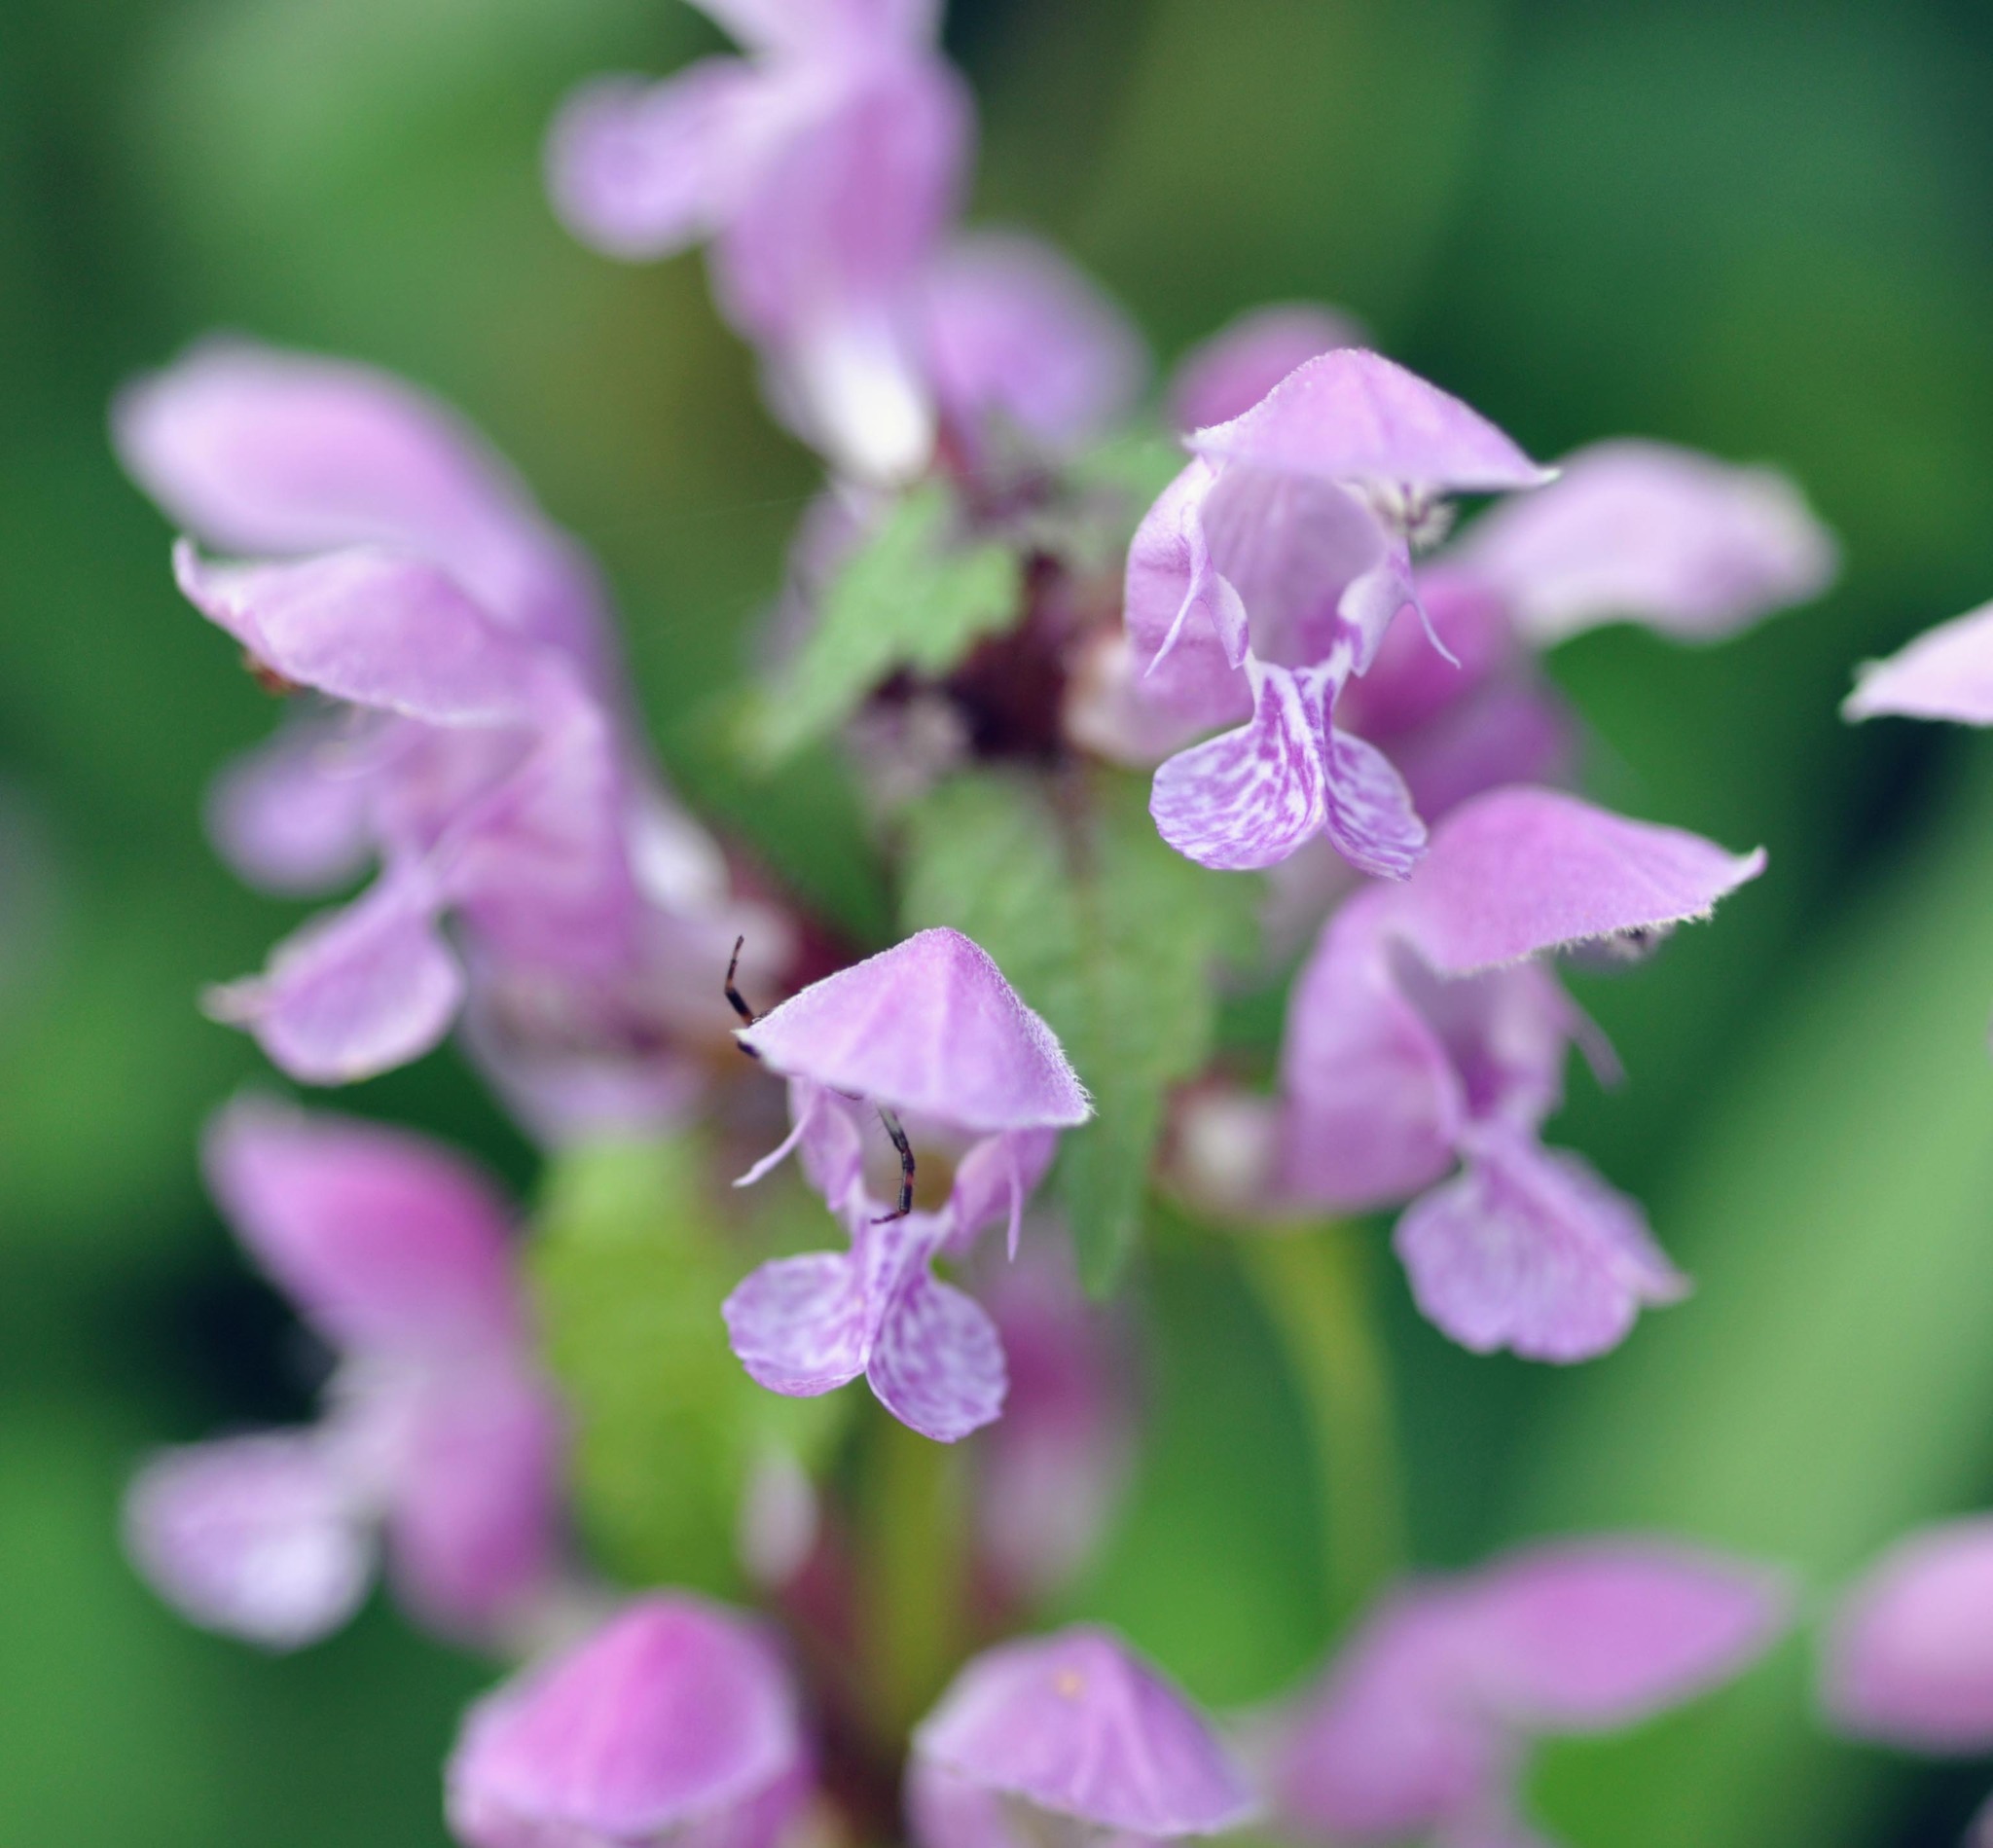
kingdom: Plantae
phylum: Tracheophyta
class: Magnoliopsida
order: Lamiales
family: Lamiaceae
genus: Lamium
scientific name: Lamium maculatum
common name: Spotted dead-nettle
